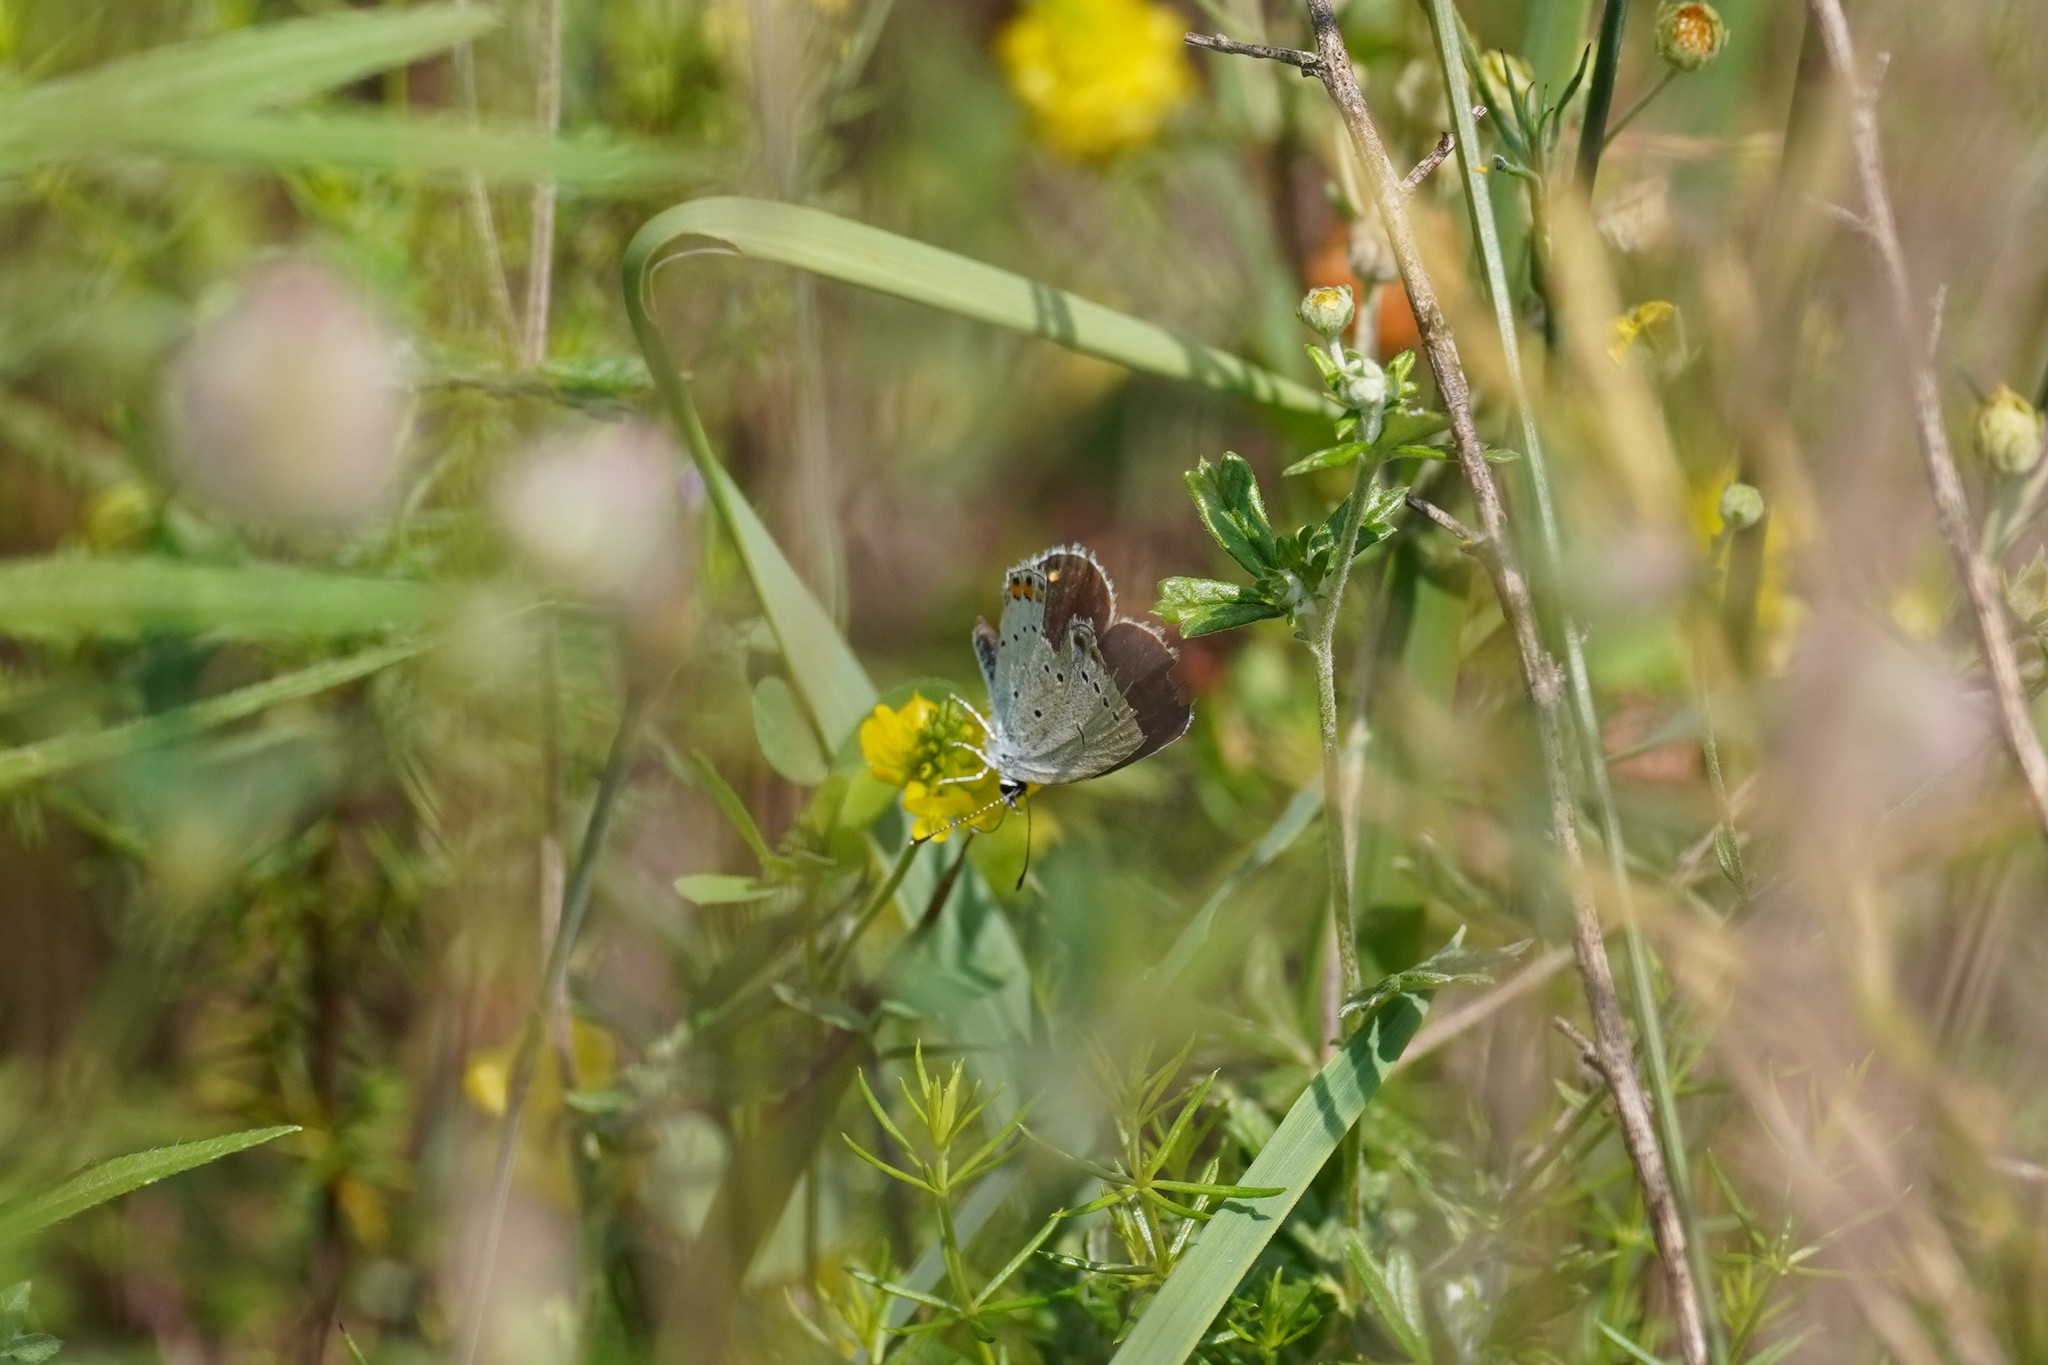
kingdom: Animalia
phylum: Arthropoda
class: Insecta
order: Lepidoptera
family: Lycaenidae
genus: Elkalyce
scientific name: Elkalyce argiades
